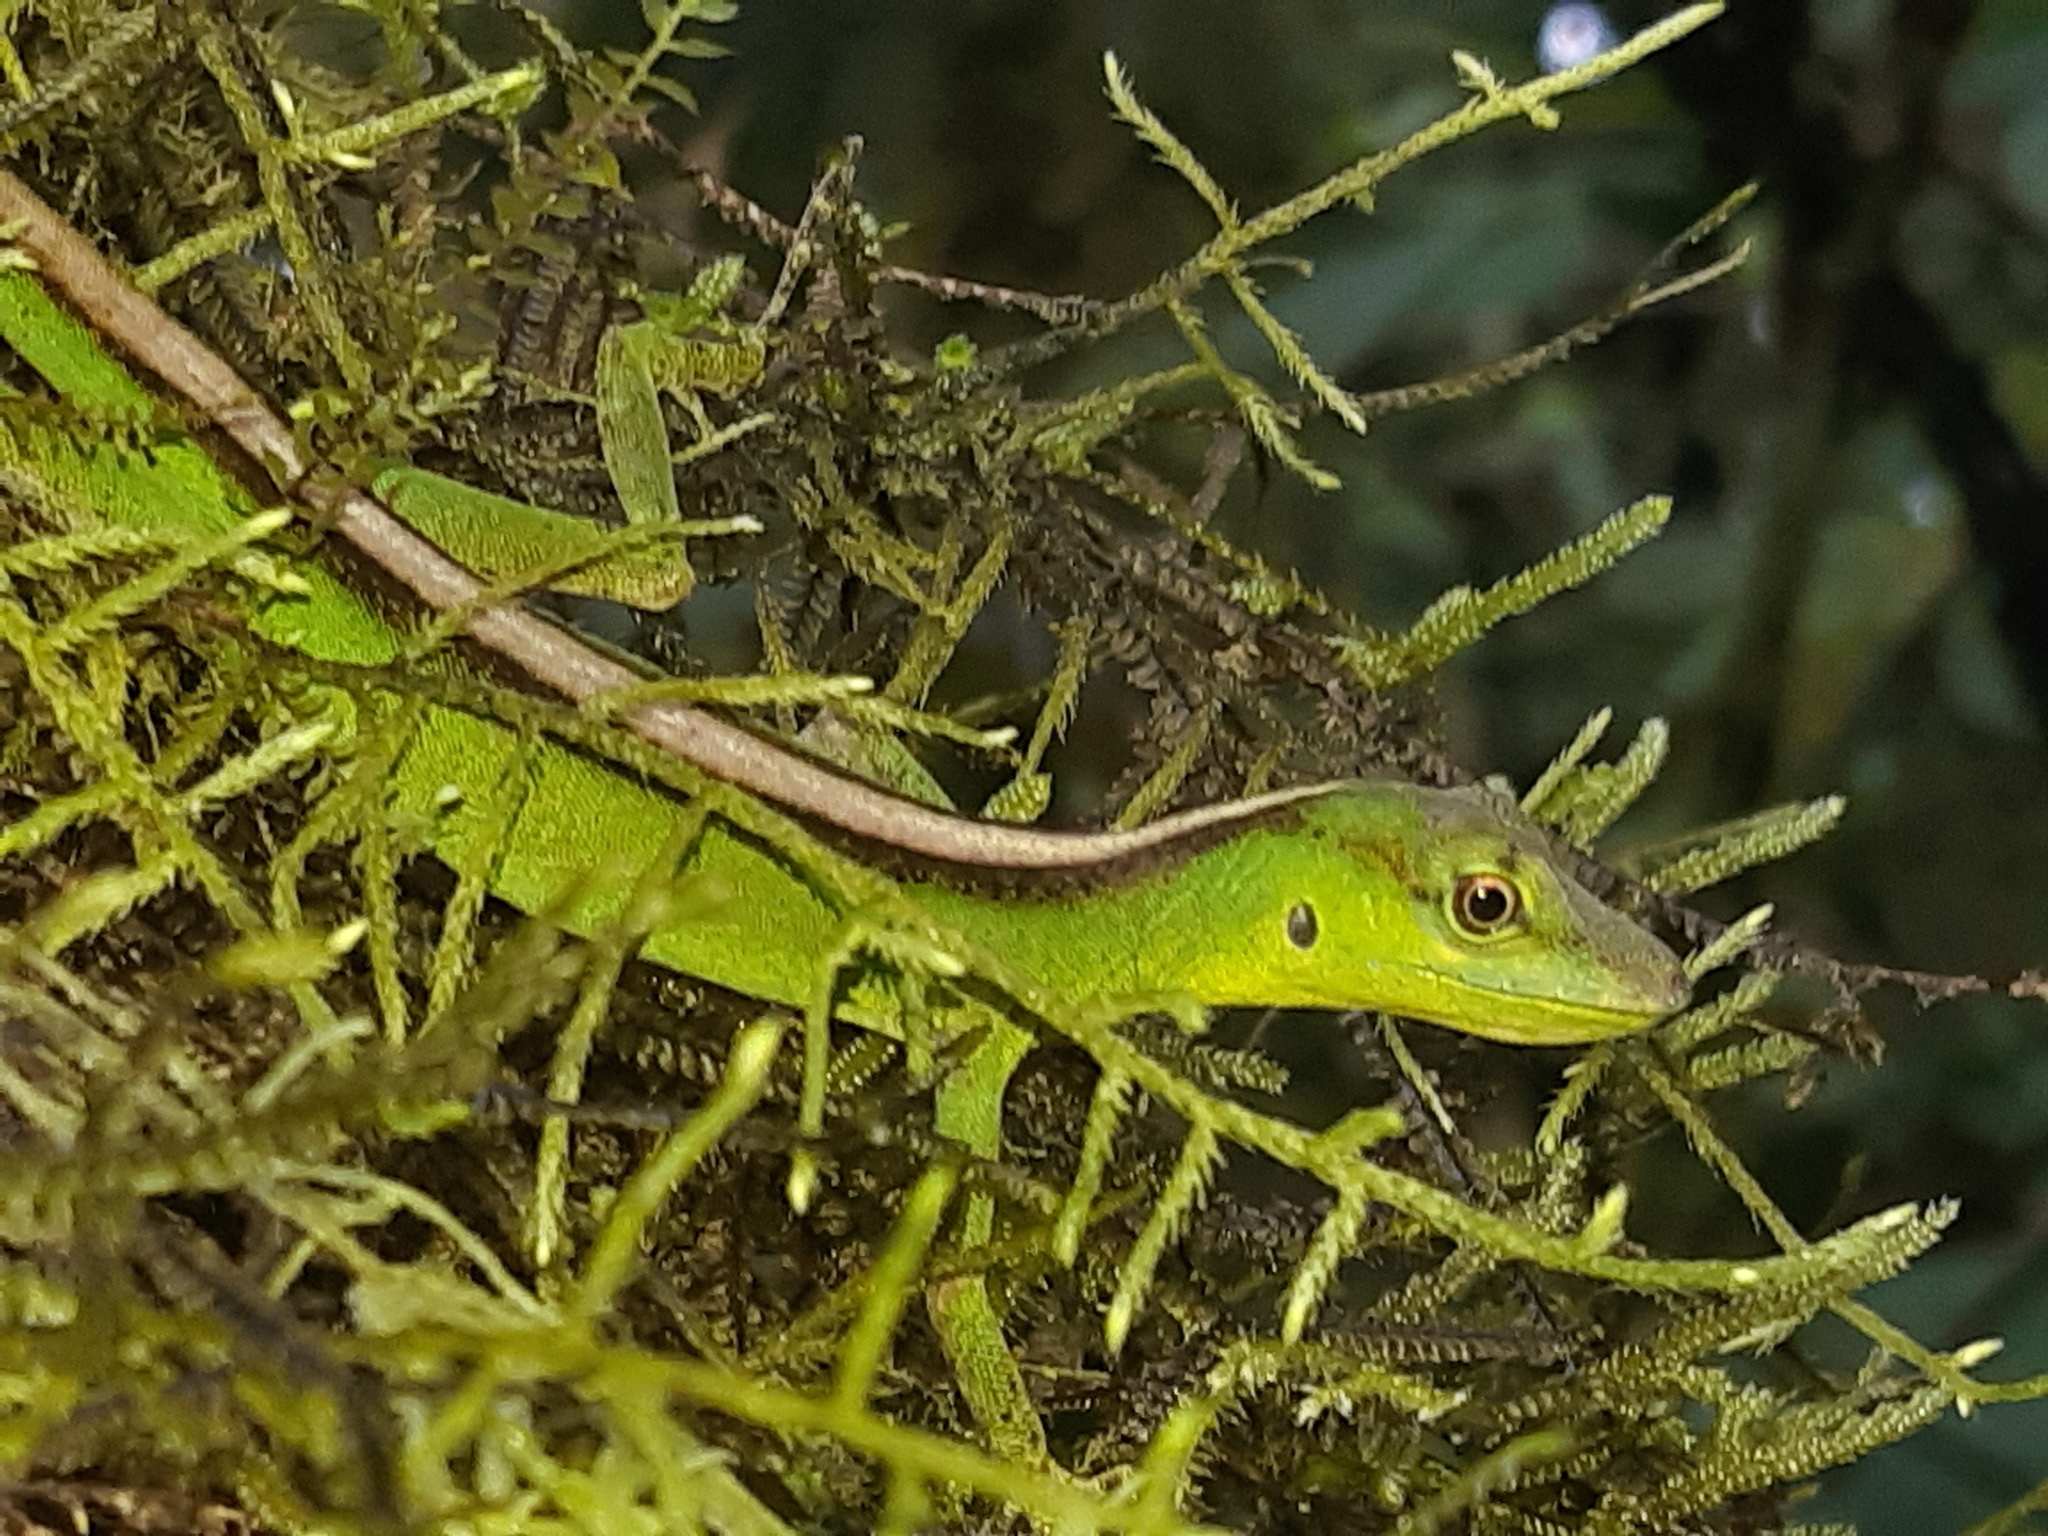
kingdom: Animalia
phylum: Chordata
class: Squamata
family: Dactyloidae
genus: Anolis
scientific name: Anolis gemmosus
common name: O'shaughnessy's anole
